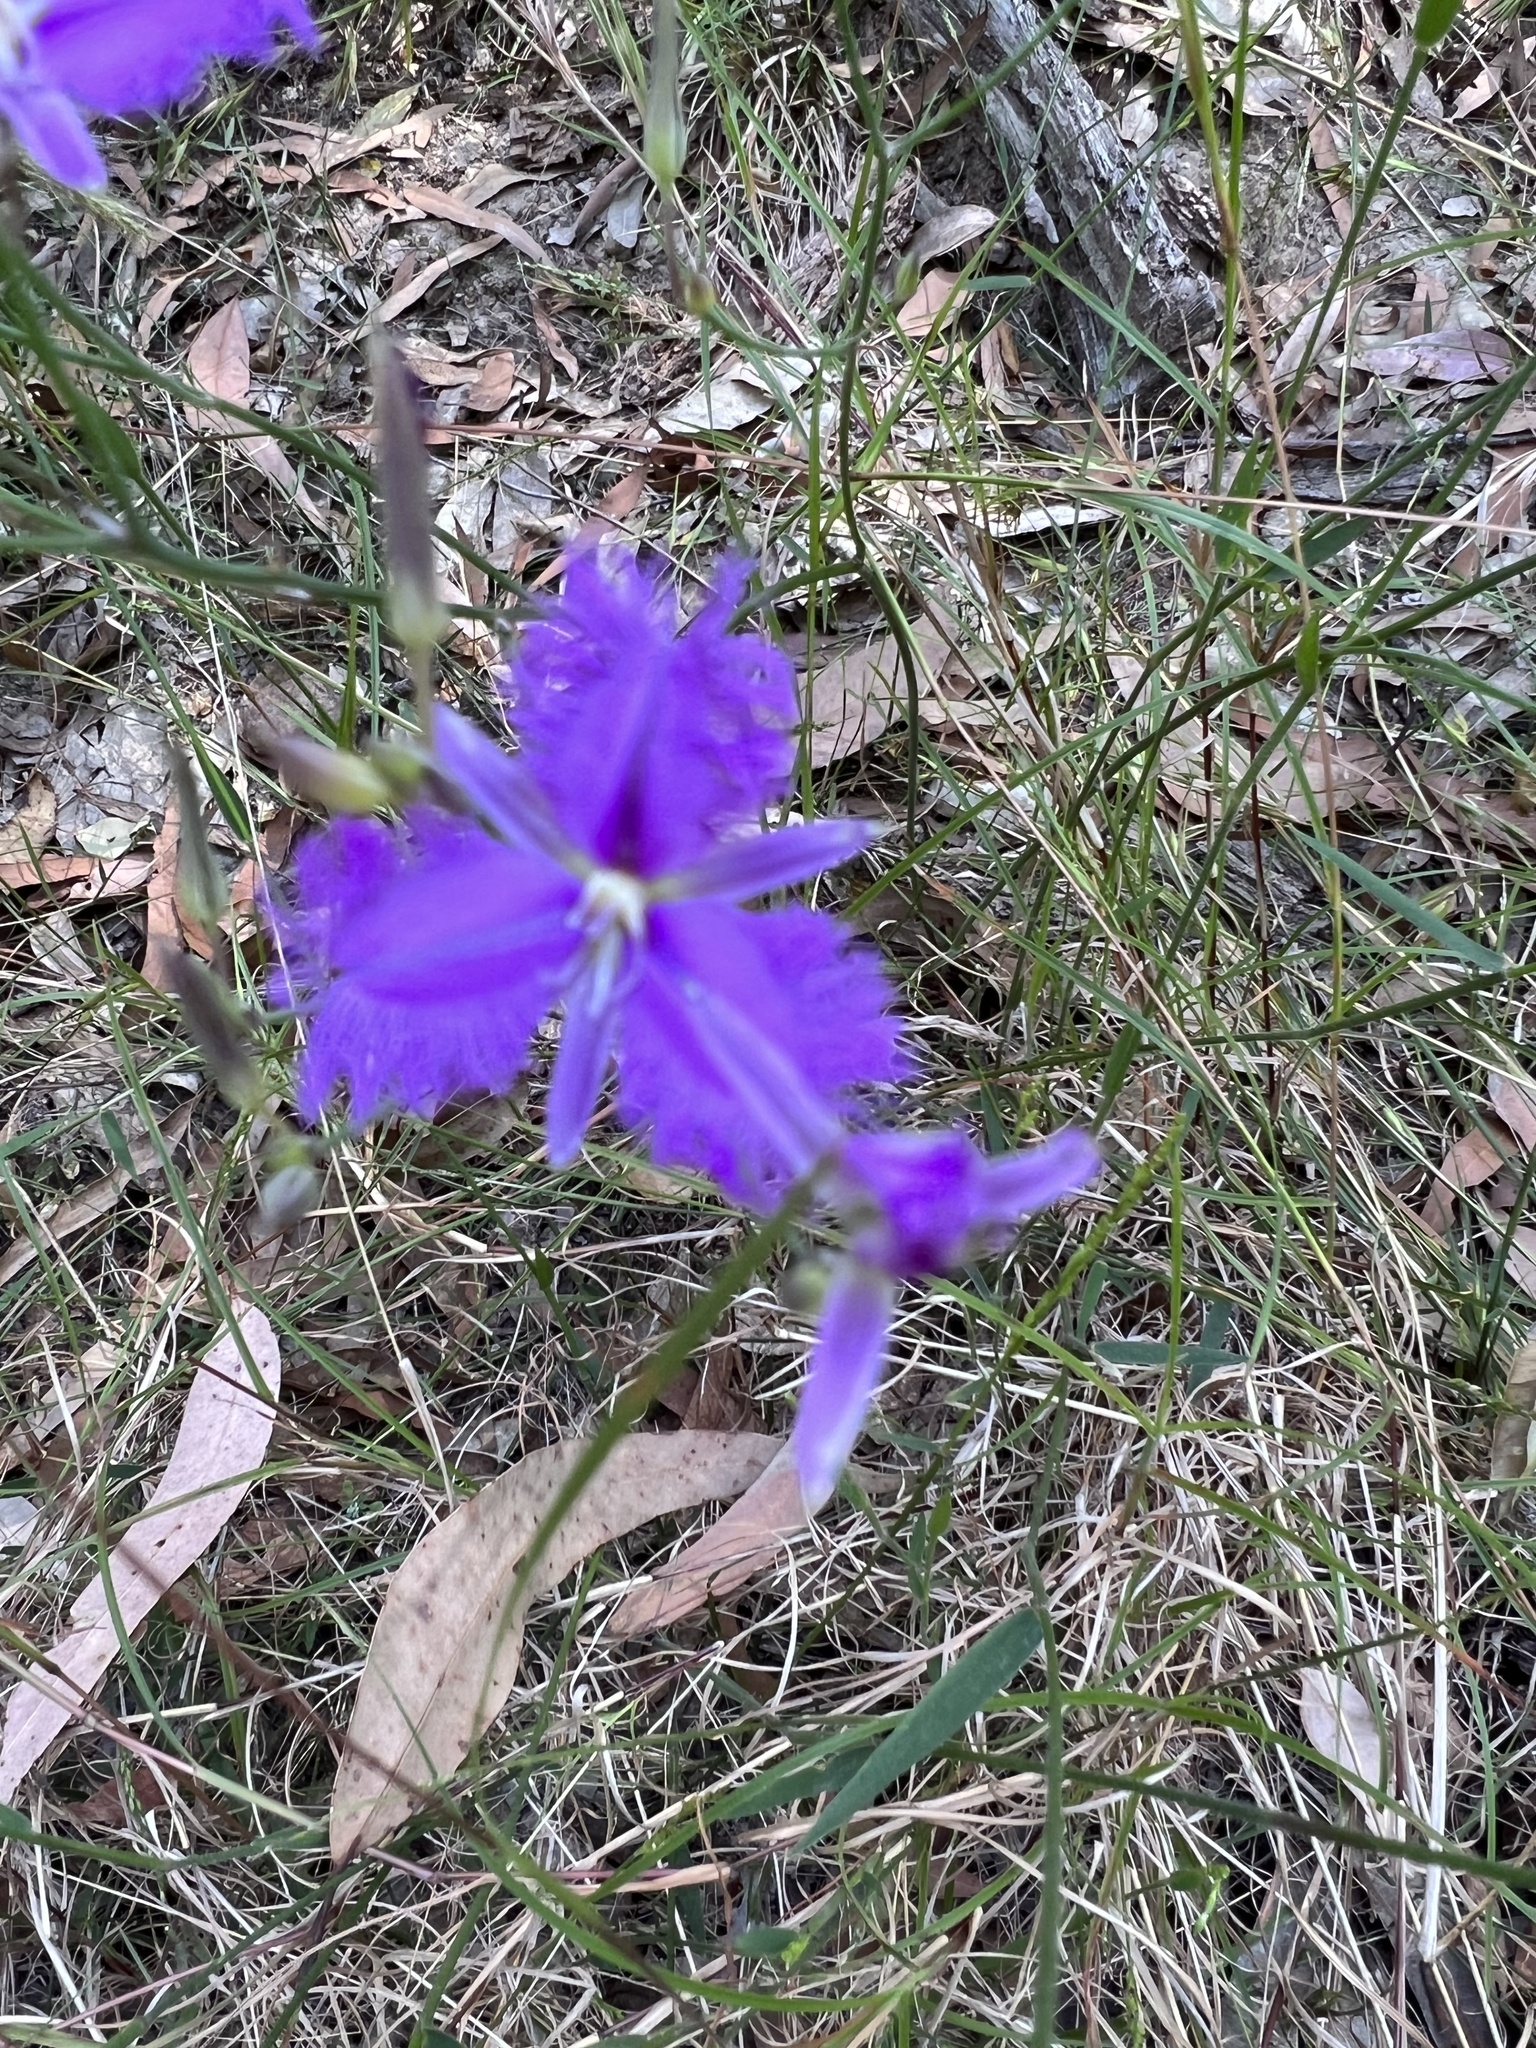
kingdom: Plantae
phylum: Tracheophyta
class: Liliopsida
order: Asparagales
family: Asparagaceae
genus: Thysanotus
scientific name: Thysanotus tuberosus
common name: Common fringed-lily
